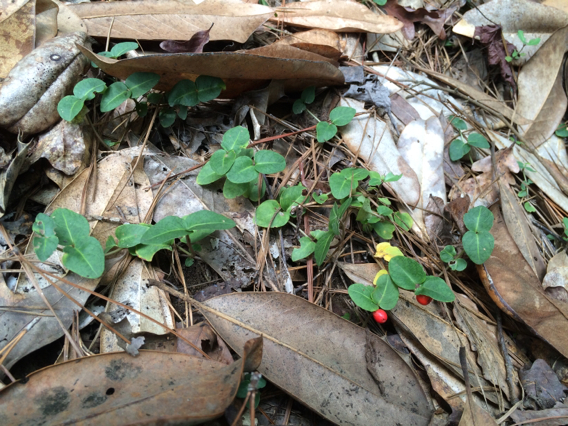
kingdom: Plantae
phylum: Tracheophyta
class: Magnoliopsida
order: Gentianales
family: Rubiaceae
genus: Mitchella
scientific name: Mitchella repens
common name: Partridge-berry
